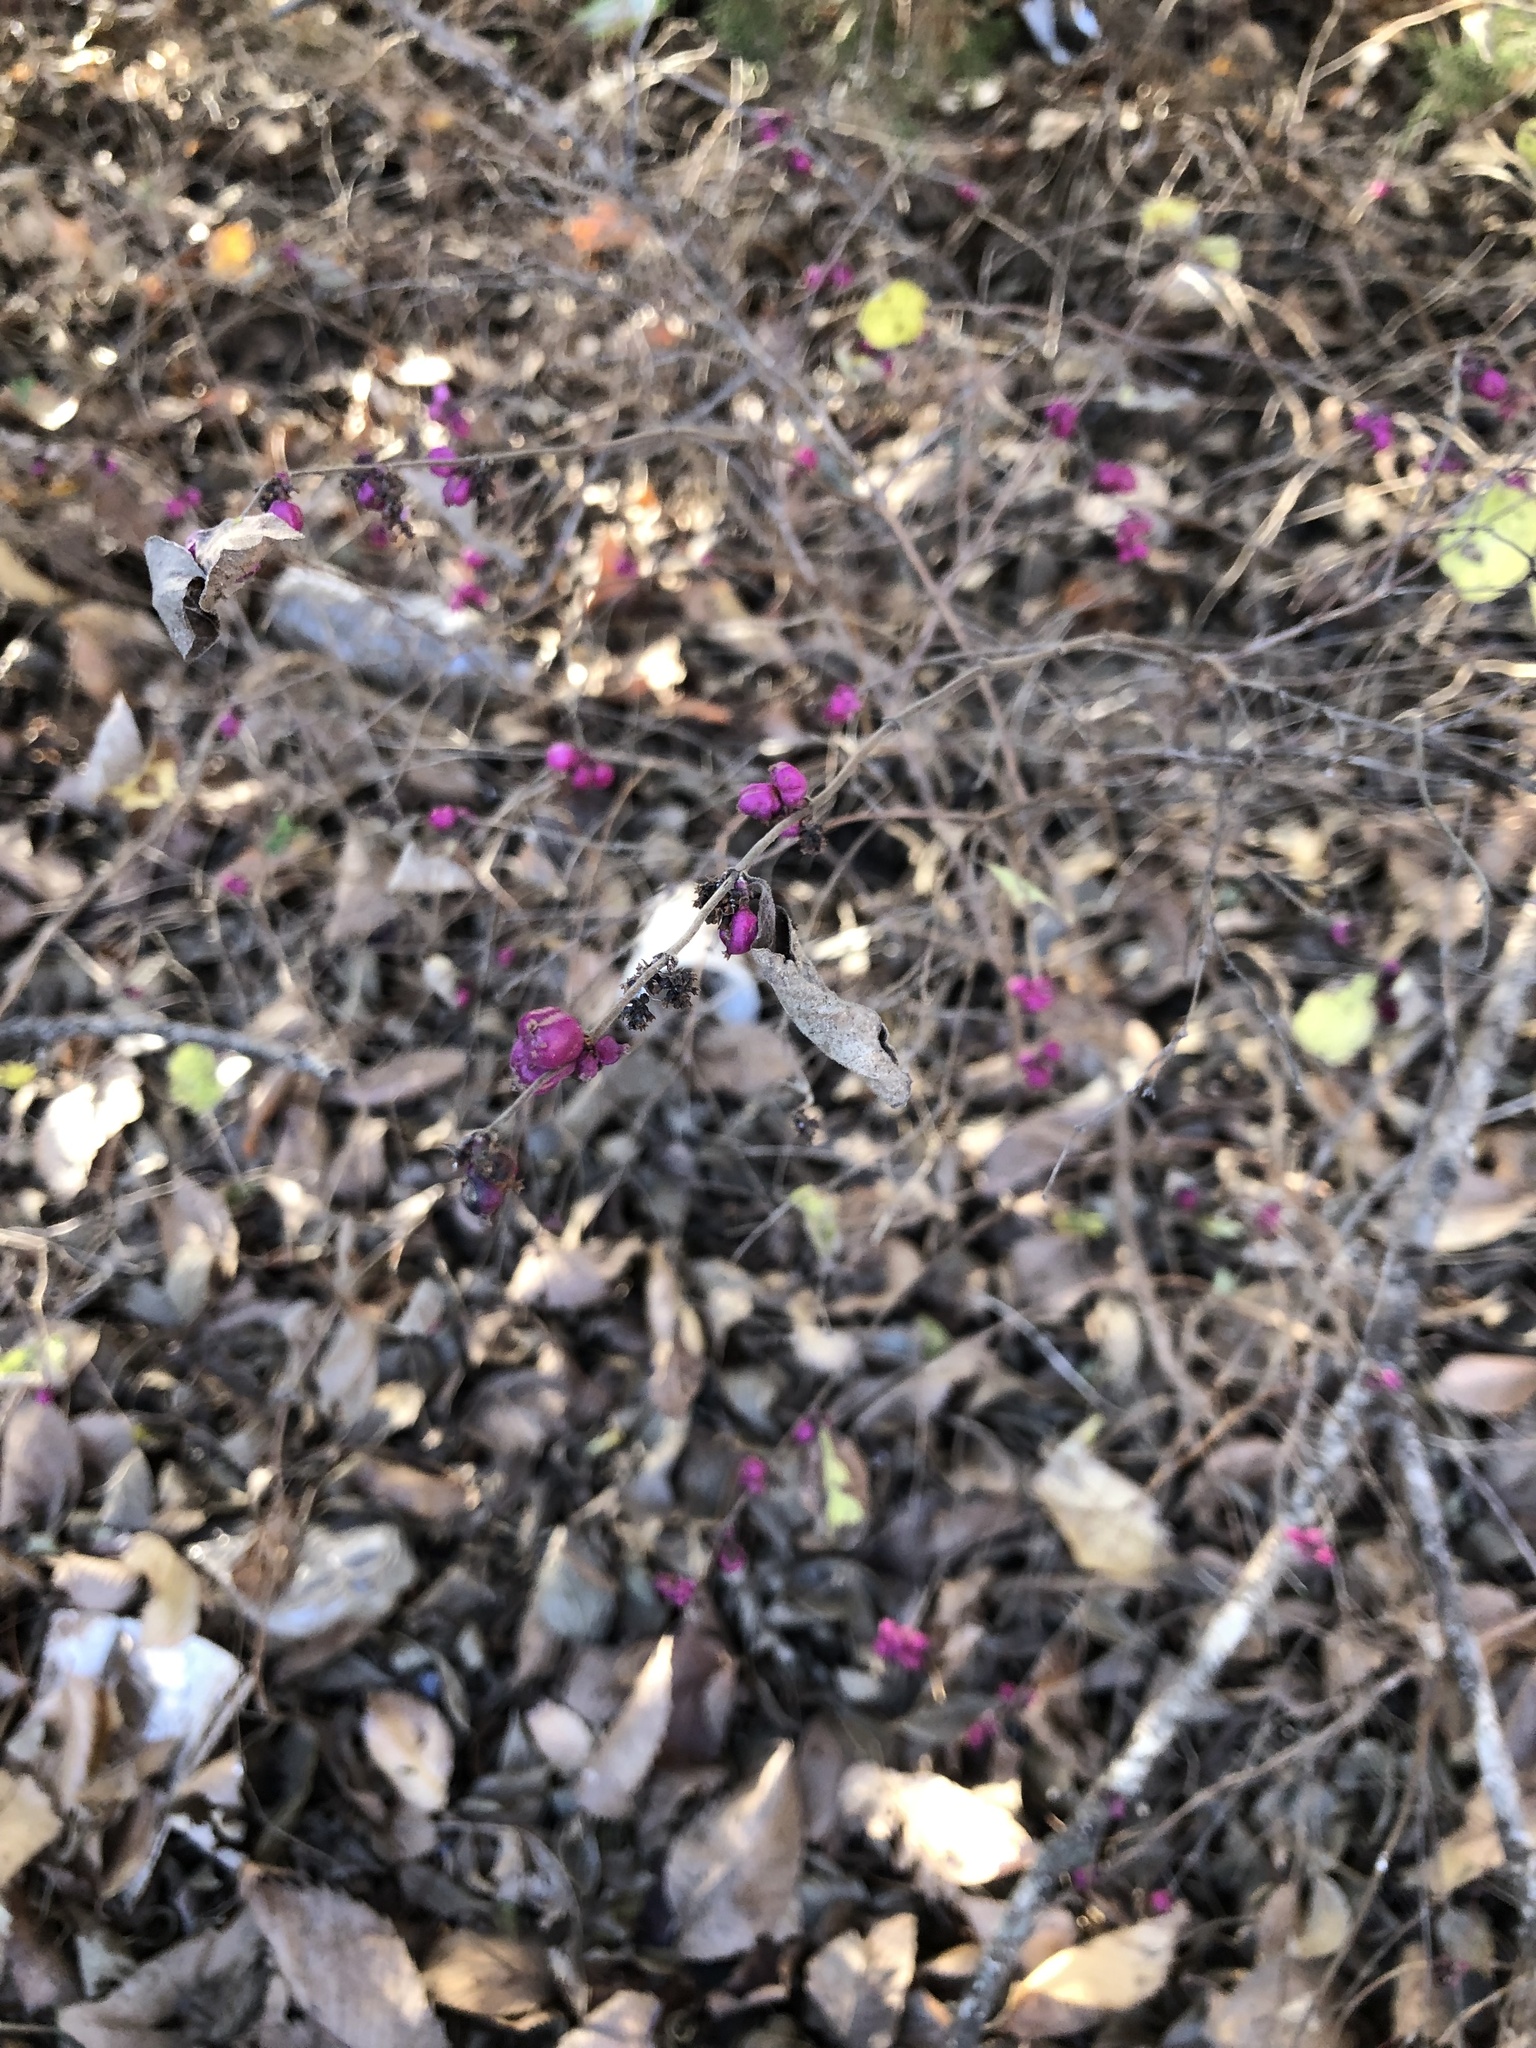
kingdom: Plantae
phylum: Tracheophyta
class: Magnoliopsida
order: Dipsacales
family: Caprifoliaceae
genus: Symphoricarpos
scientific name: Symphoricarpos orbiculatus
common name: Coralberry
